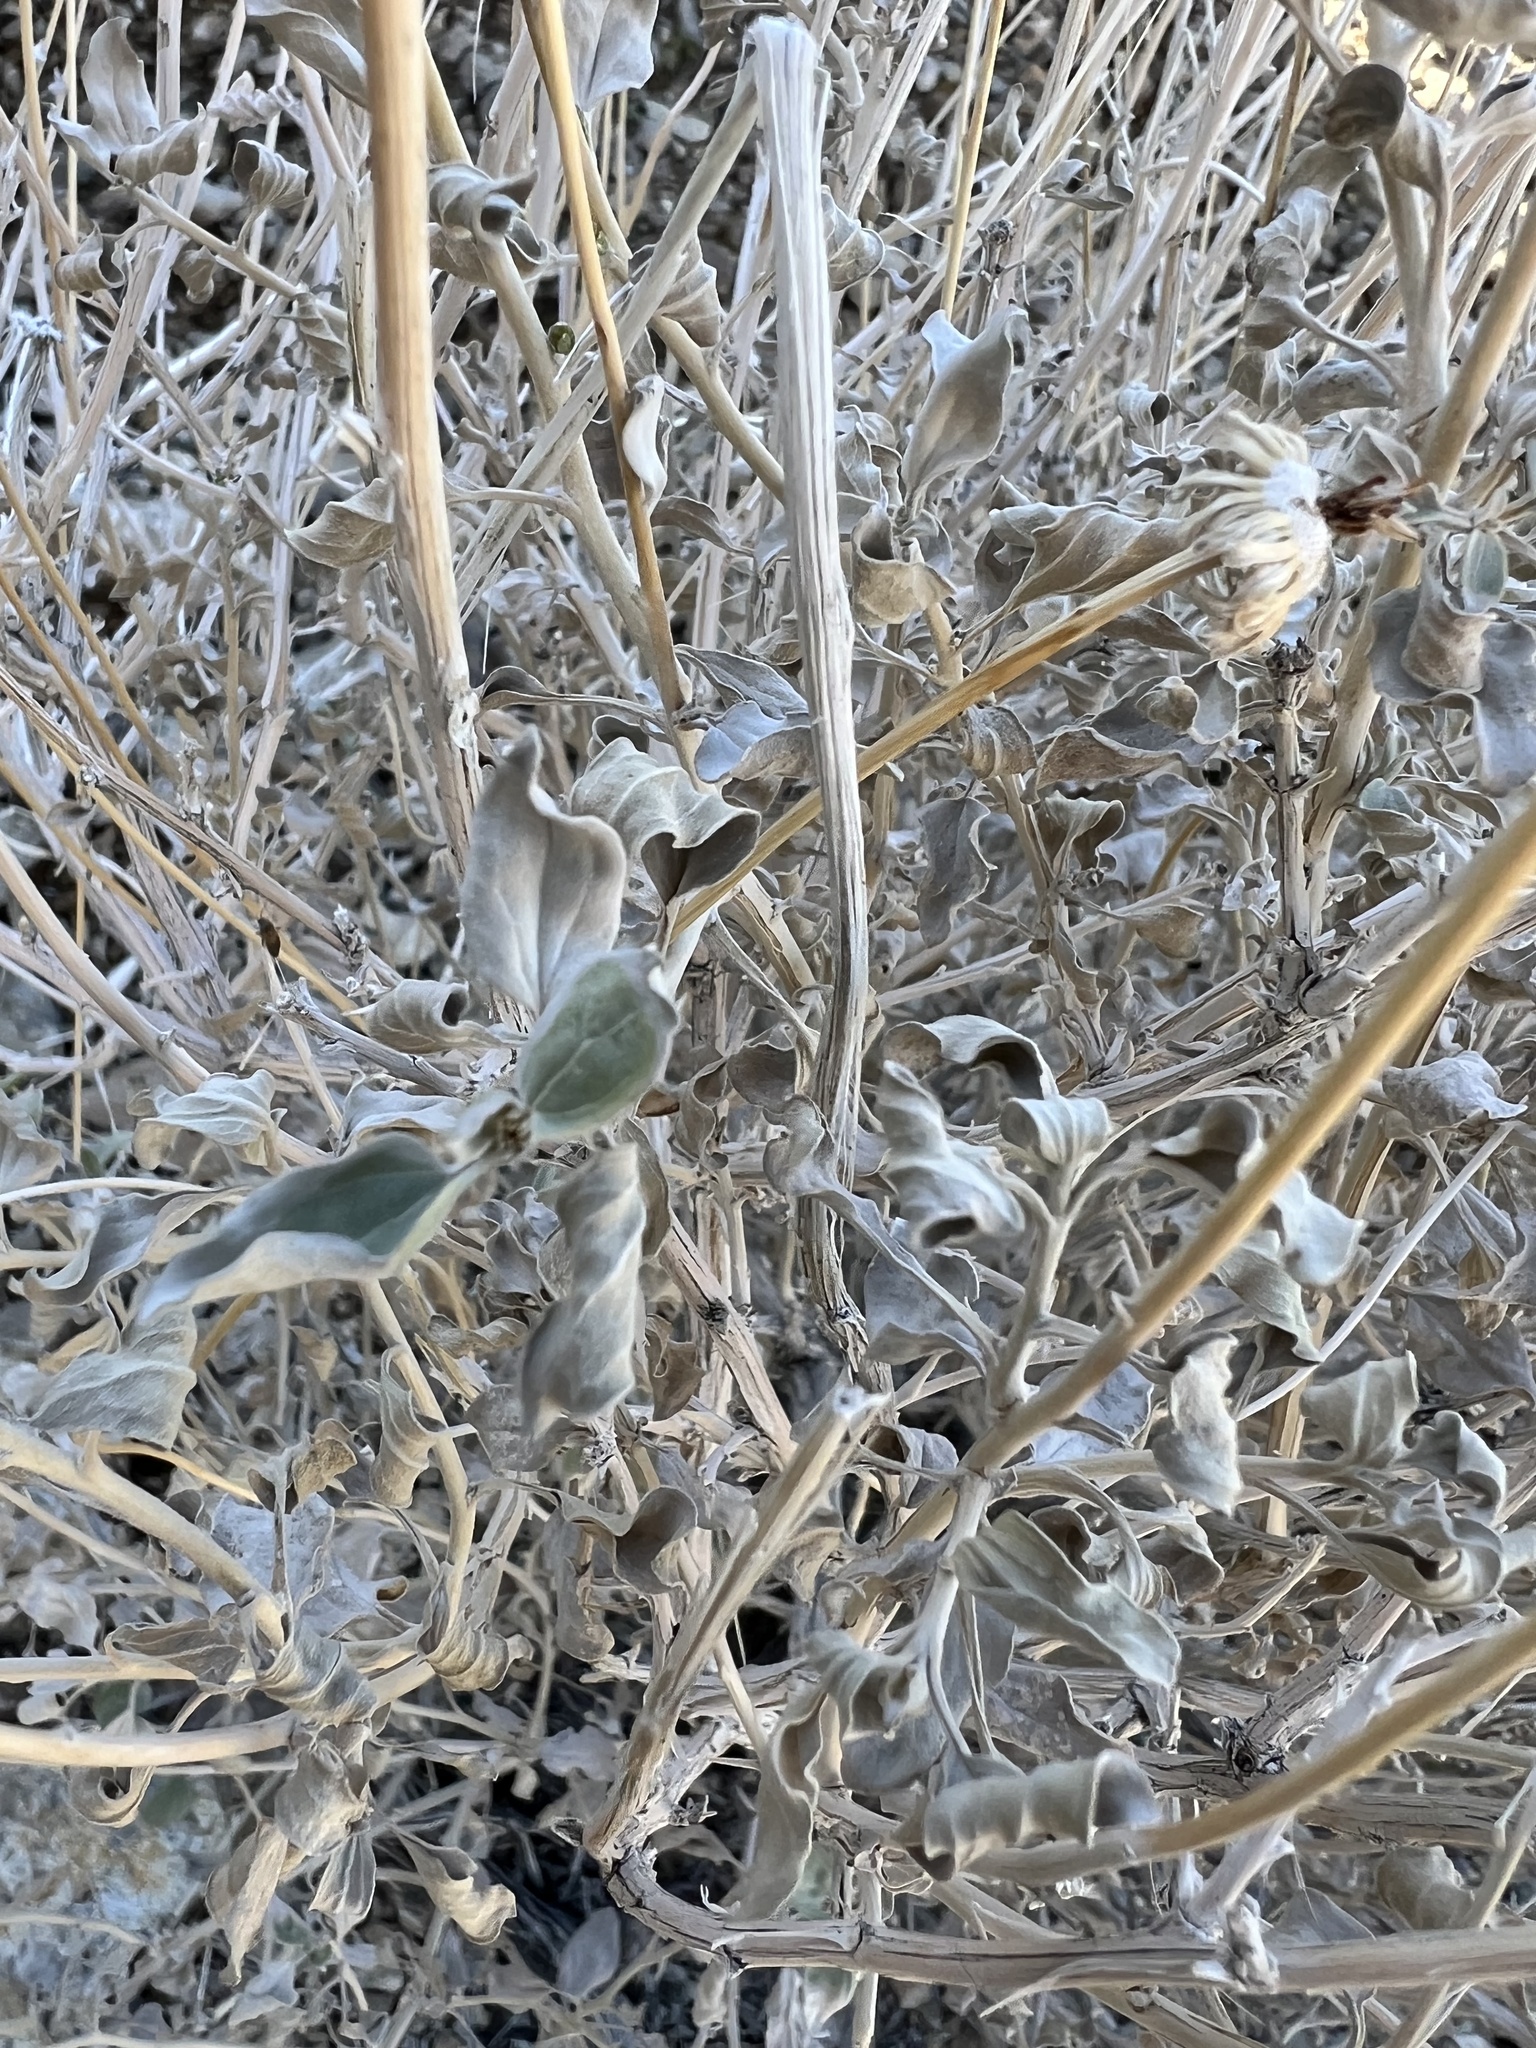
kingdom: Plantae
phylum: Tracheophyta
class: Magnoliopsida
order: Asterales
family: Asteraceae
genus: Encelia
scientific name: Encelia actoni
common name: Acton encelia
